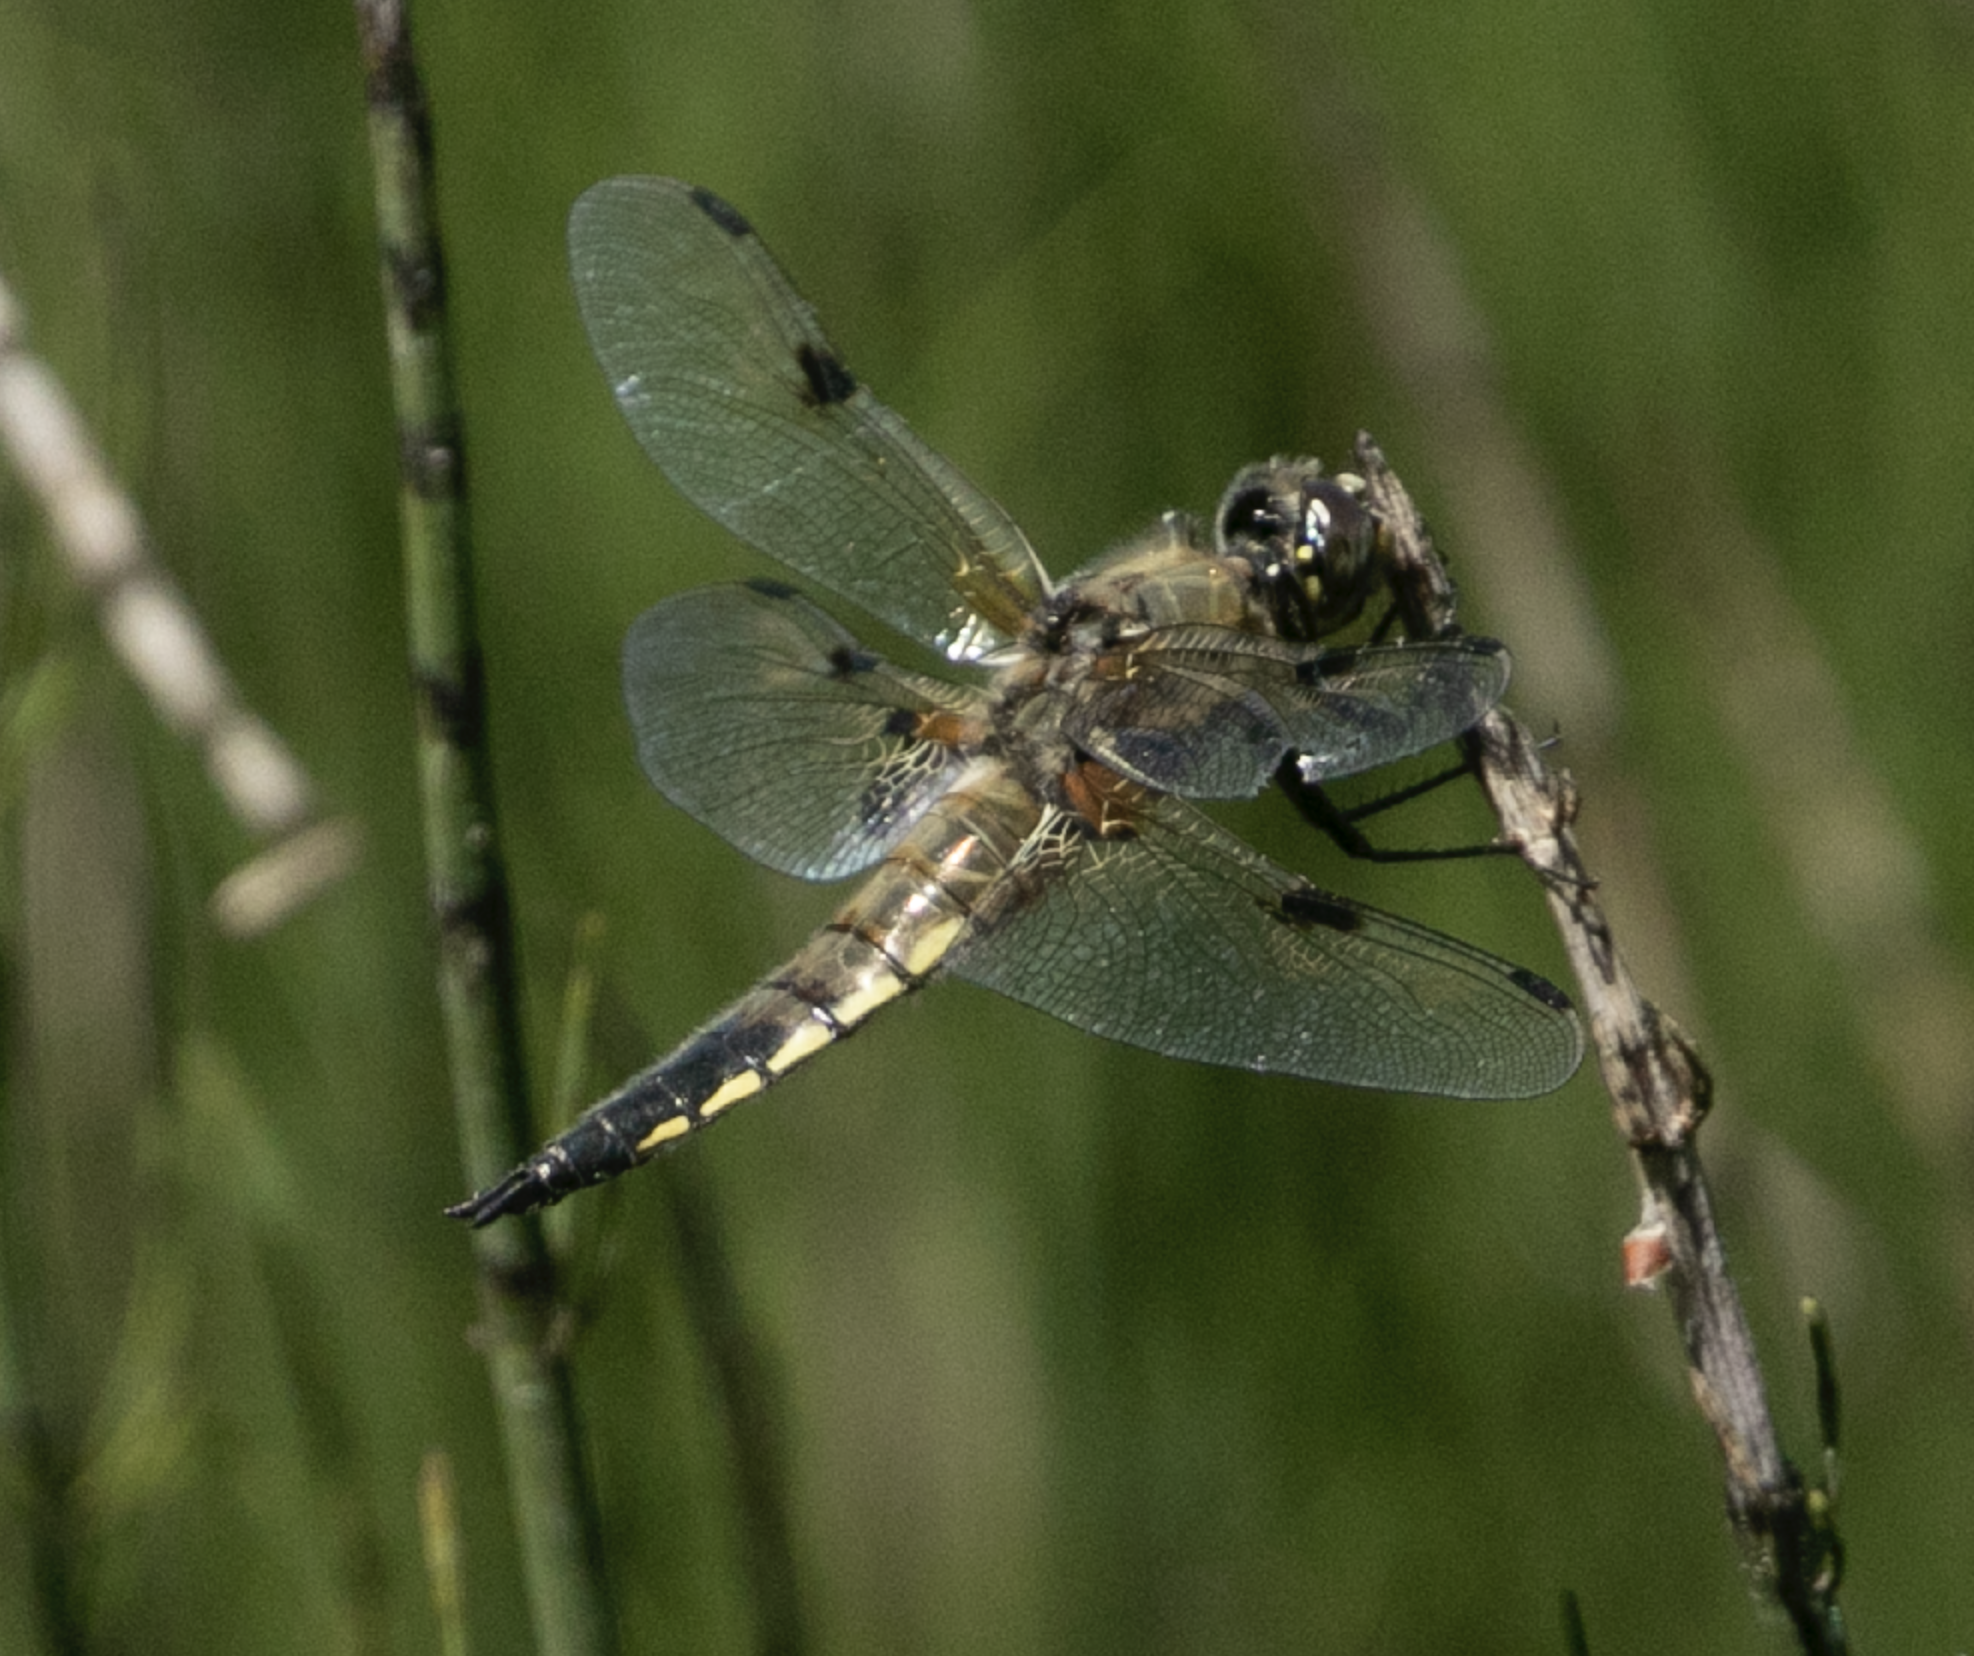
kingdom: Animalia
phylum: Arthropoda
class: Insecta
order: Odonata
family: Libellulidae
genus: Libellula
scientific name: Libellula quadrimaculata
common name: Four-spotted chaser
